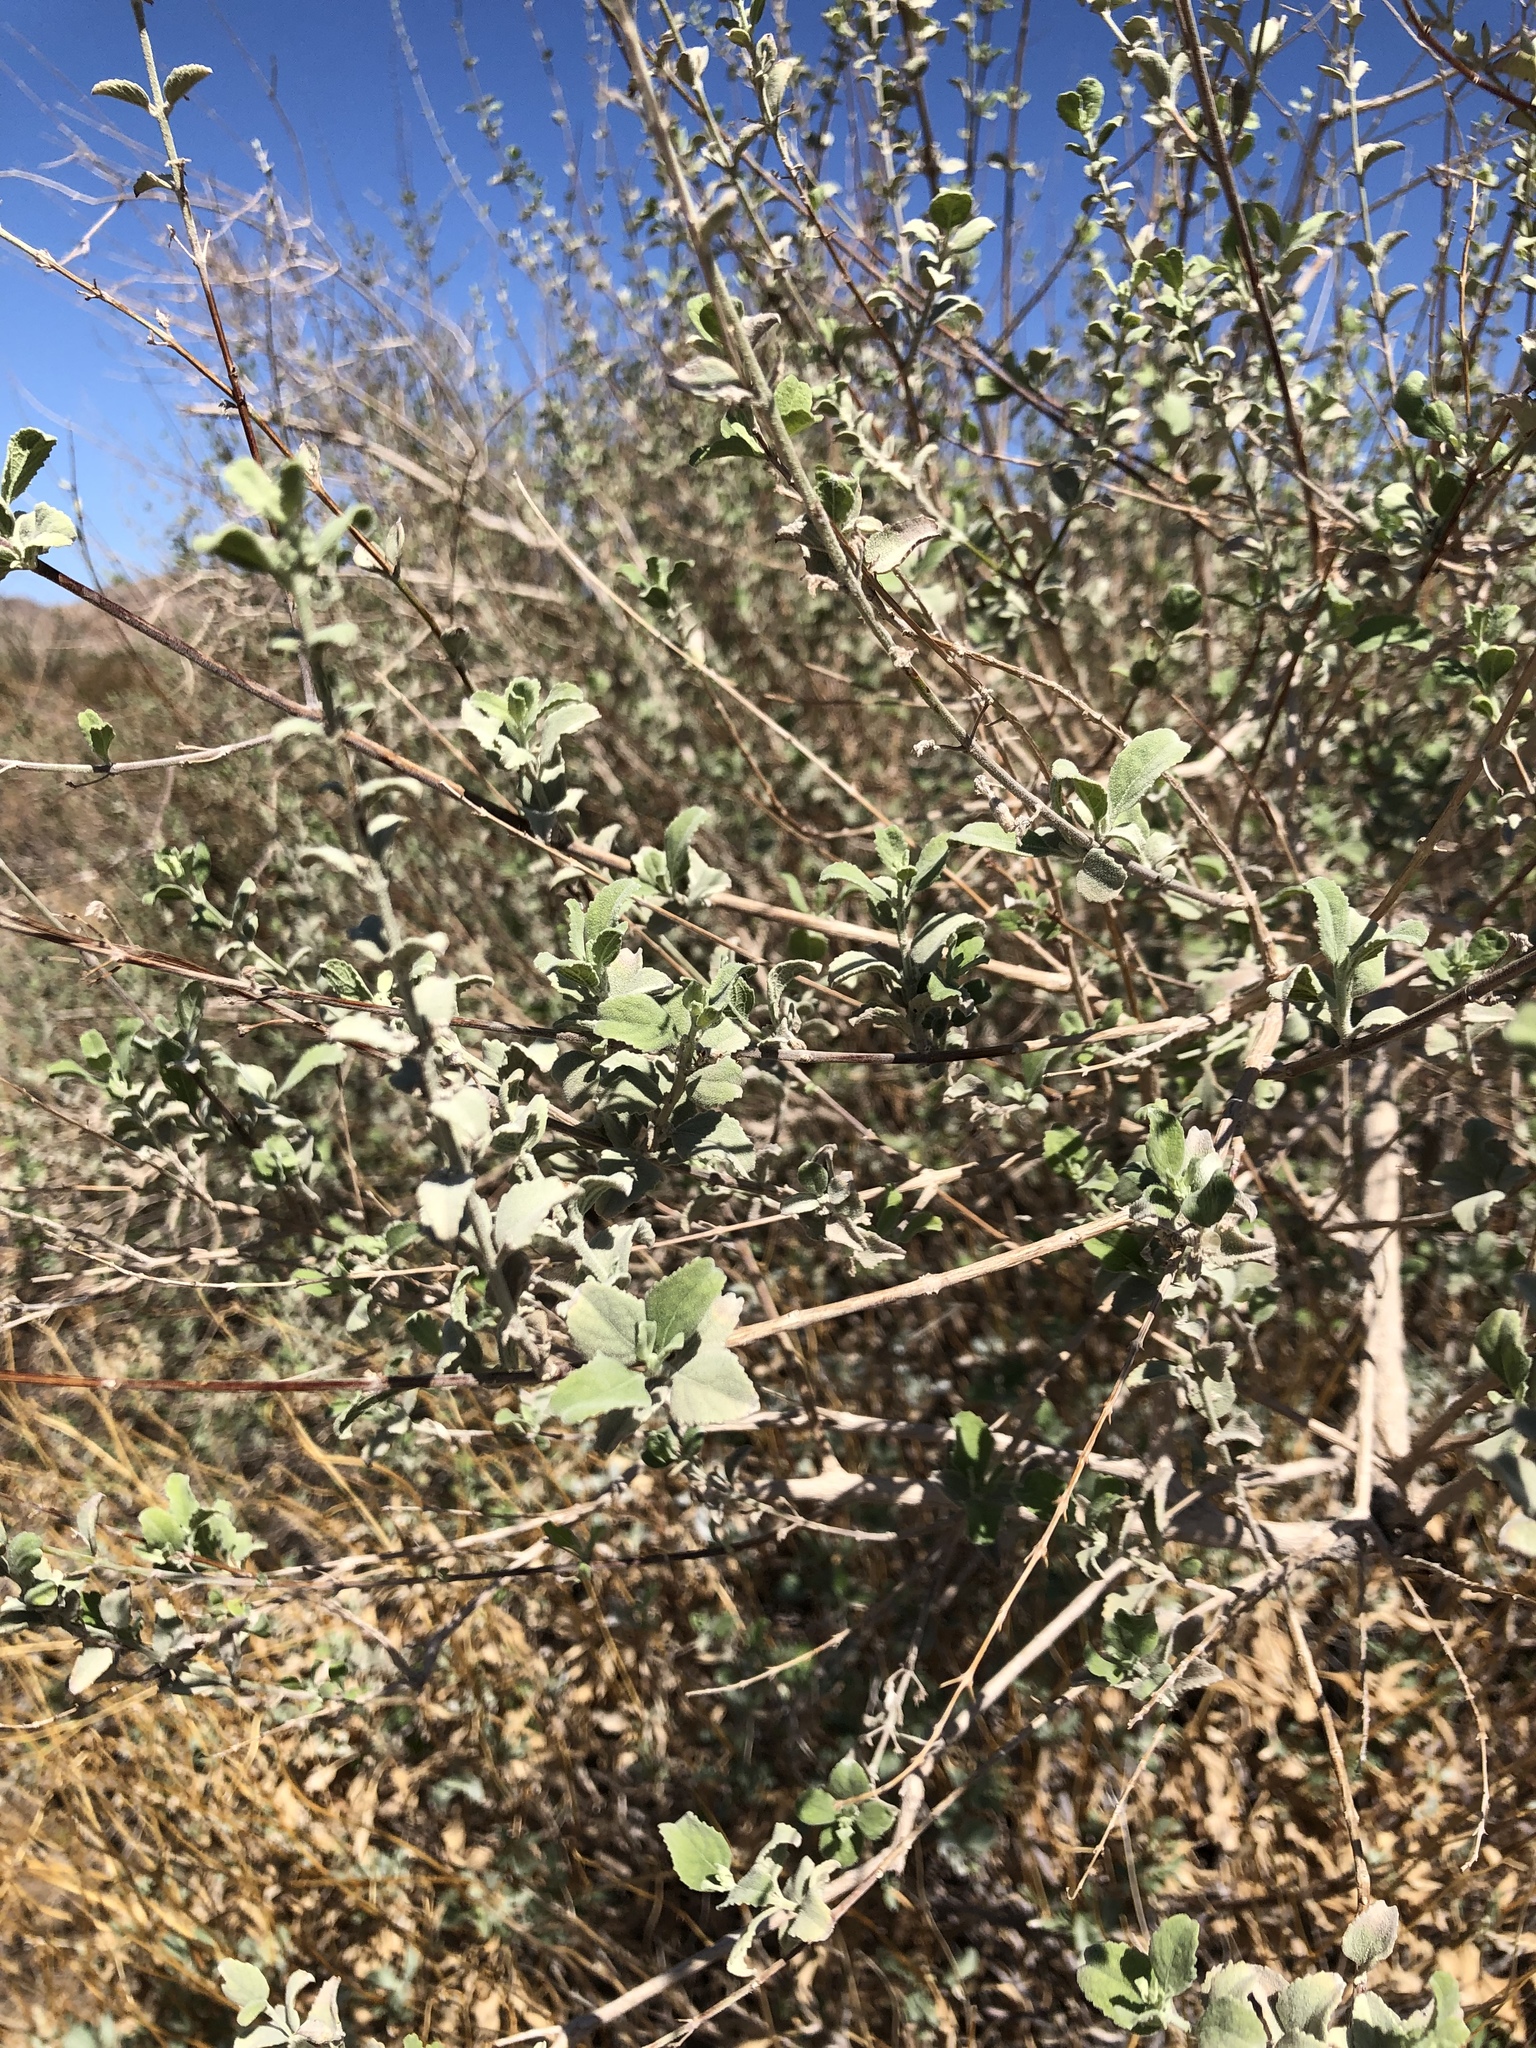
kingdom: Plantae
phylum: Tracheophyta
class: Magnoliopsida
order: Lamiales
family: Lamiaceae
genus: Condea
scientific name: Condea emoryi
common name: Chia
